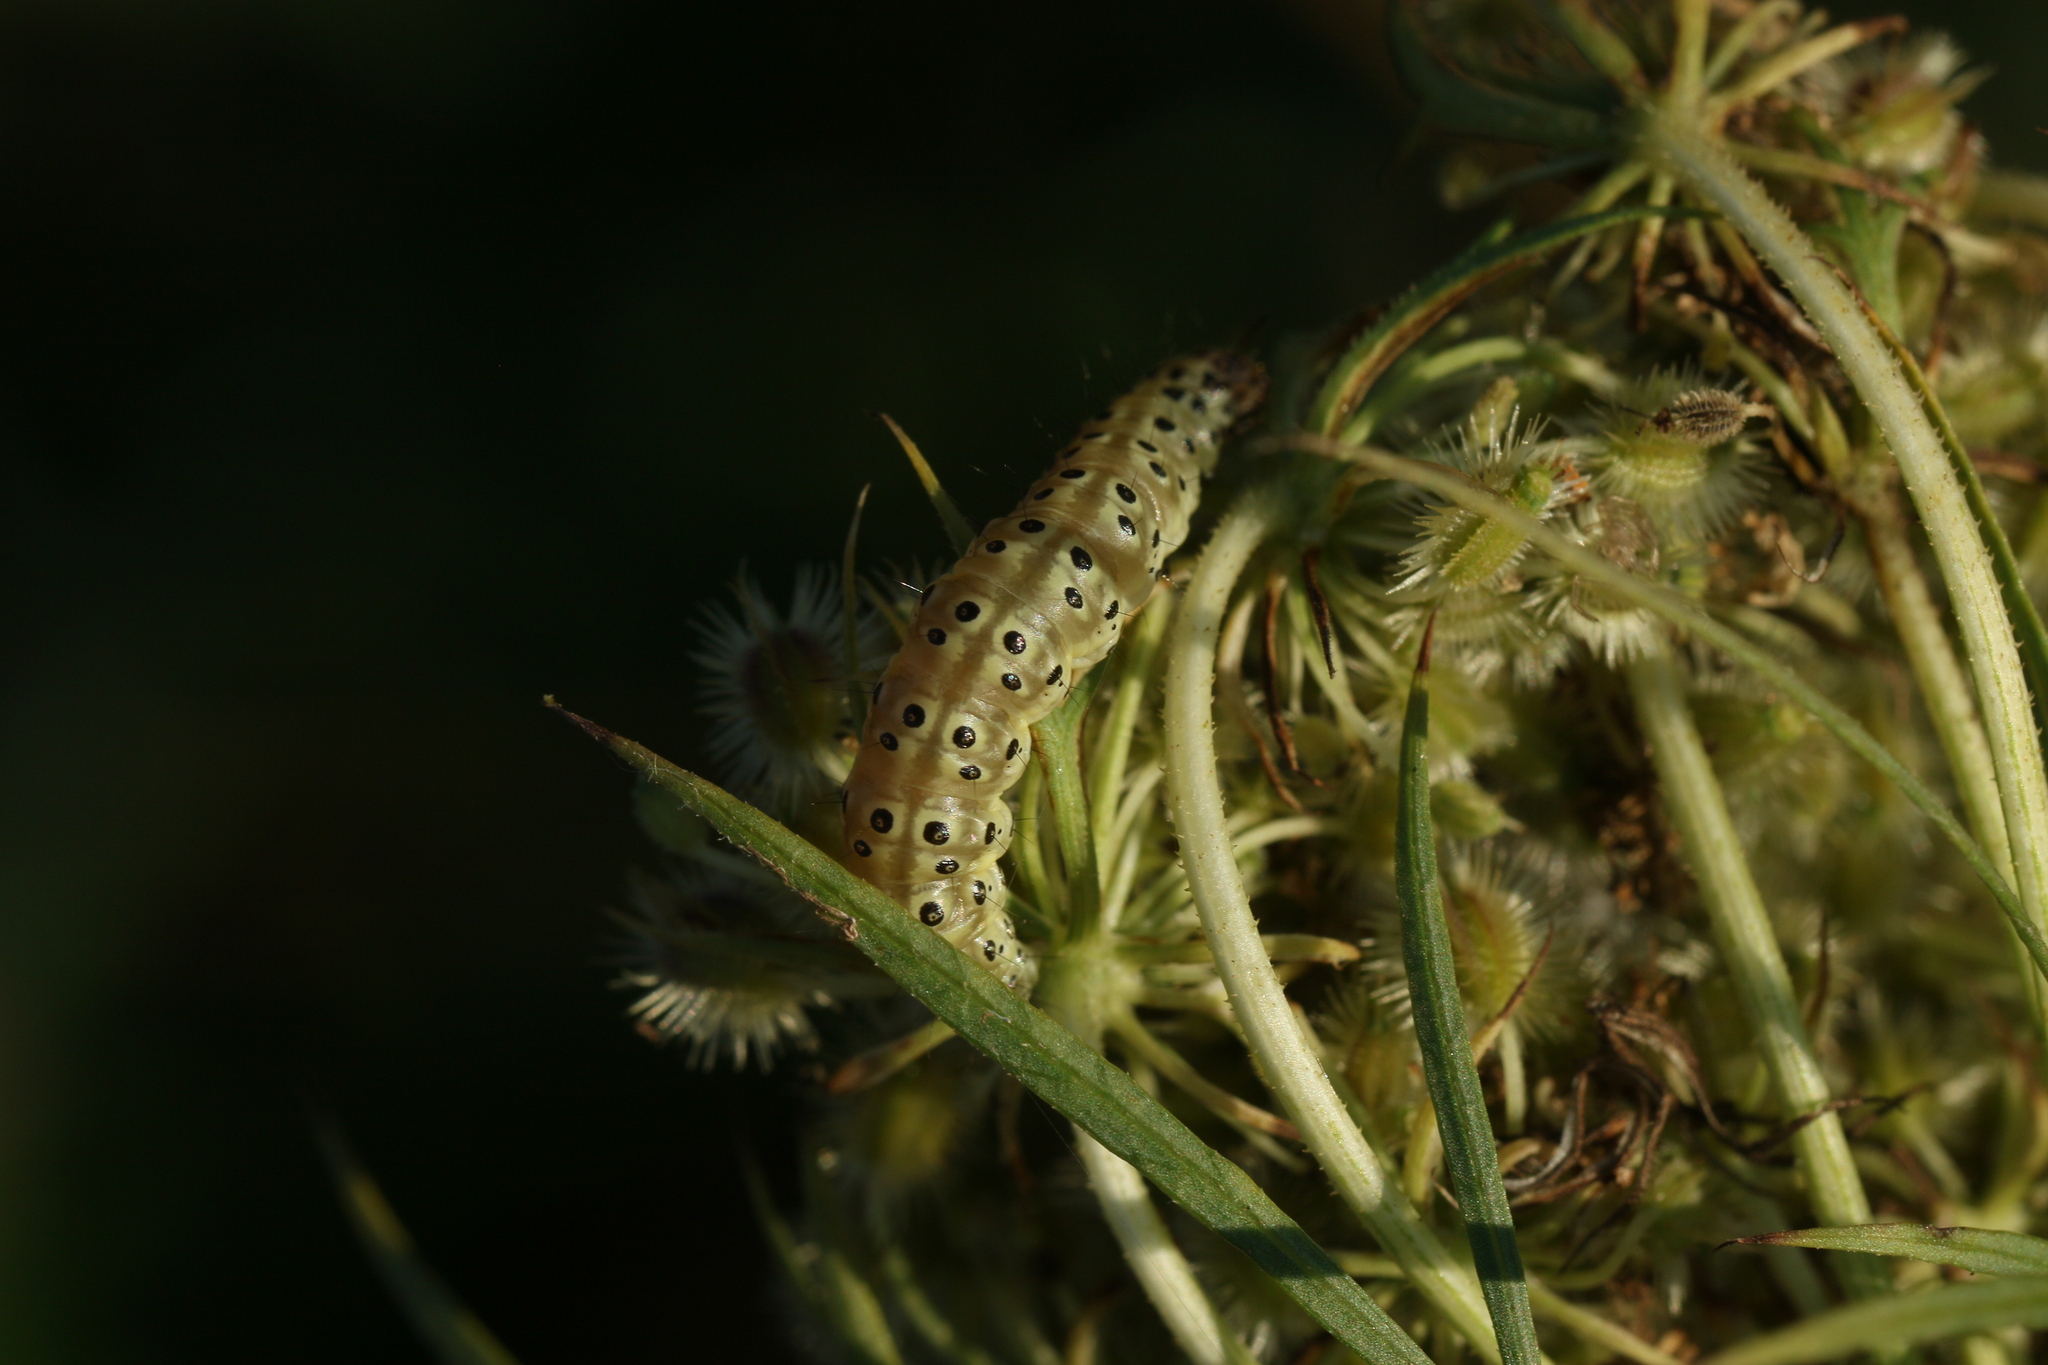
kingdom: Animalia
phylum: Arthropoda
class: Insecta
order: Lepidoptera
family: Crambidae
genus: Sitochroa
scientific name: Sitochroa palealis
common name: Greenish-yellow sitochroa moth
